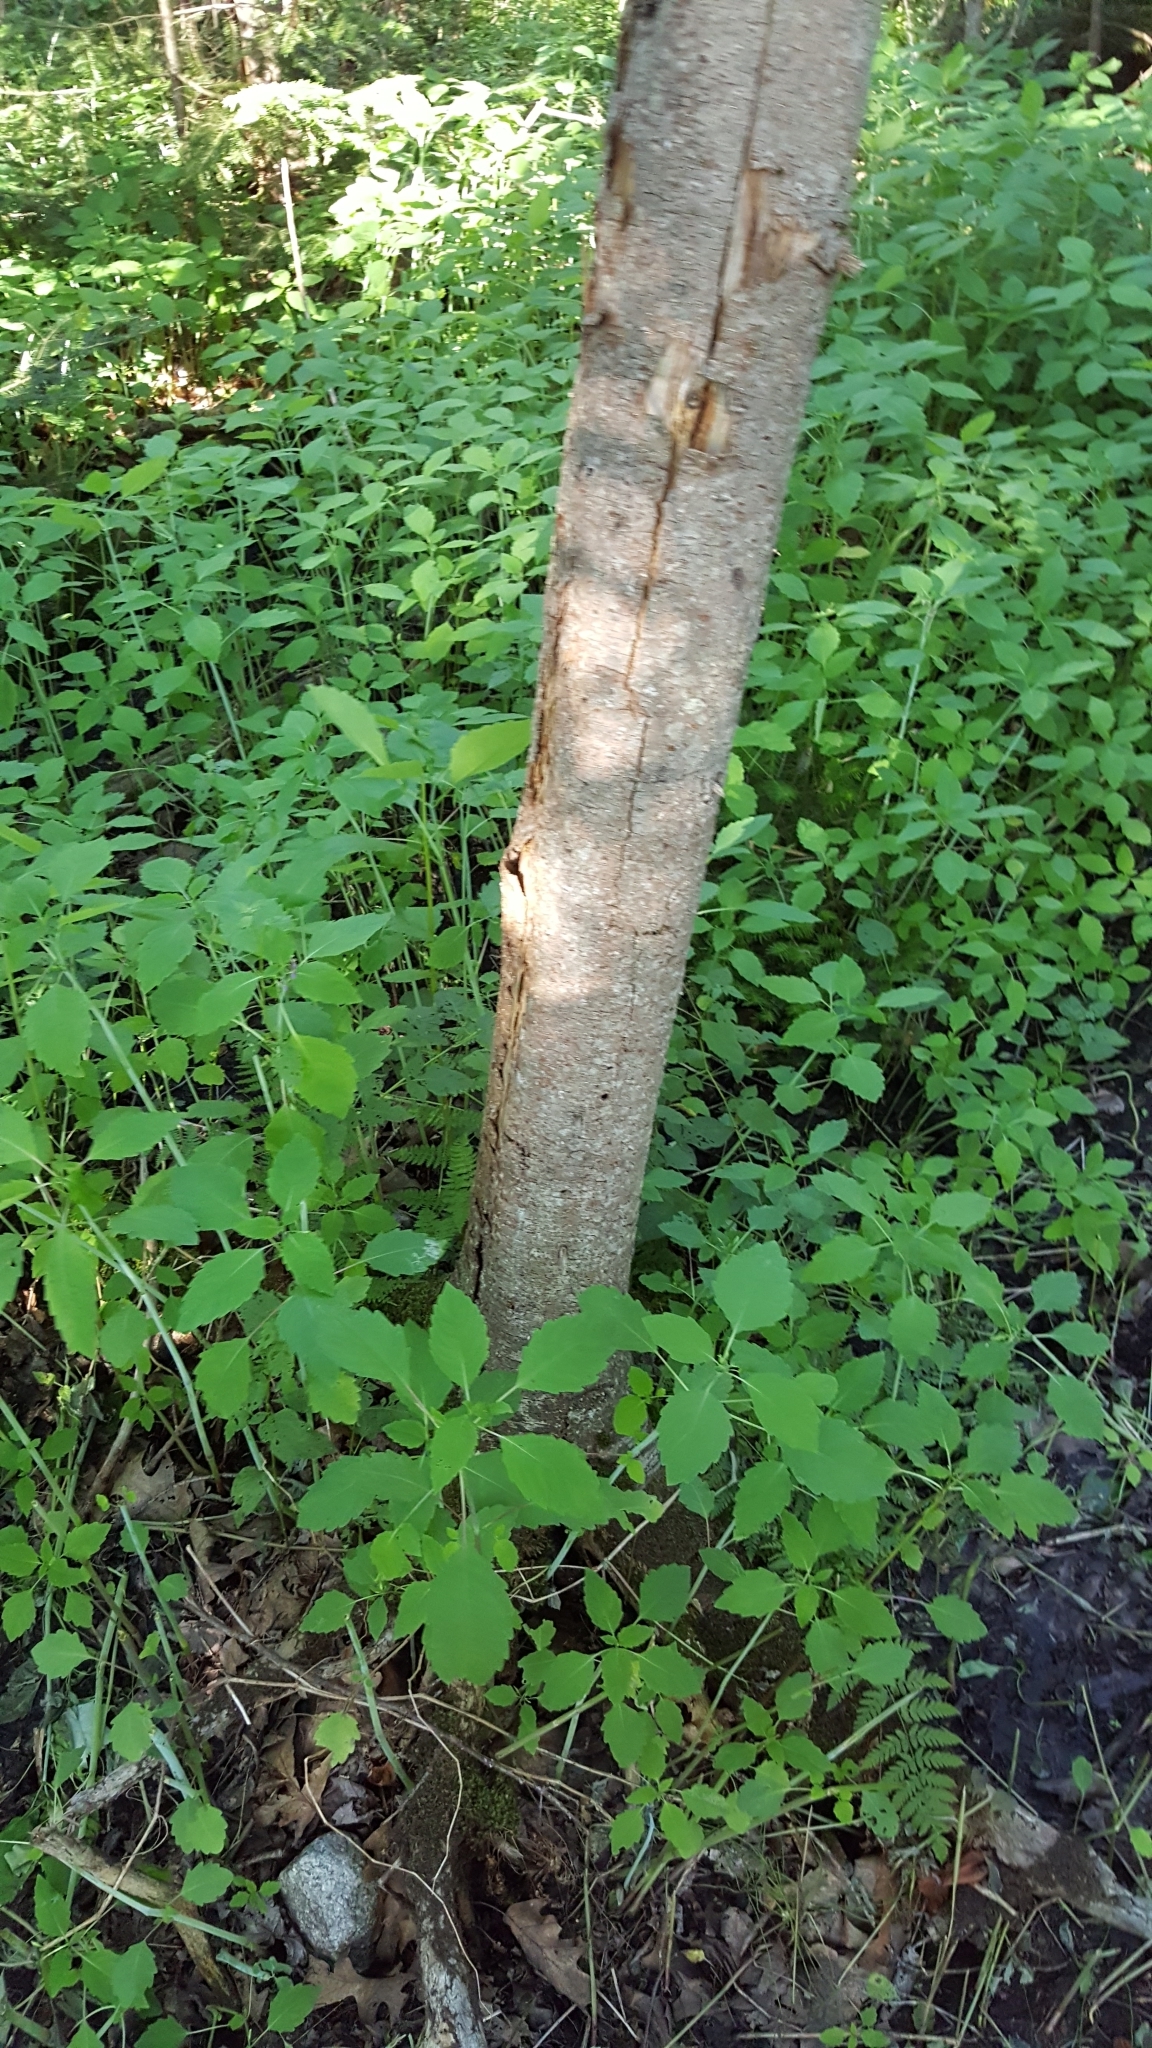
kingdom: Plantae
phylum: Tracheophyta
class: Magnoliopsida
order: Ericales
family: Balsaminaceae
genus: Impatiens
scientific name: Impatiens capensis
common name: Orange balsam
